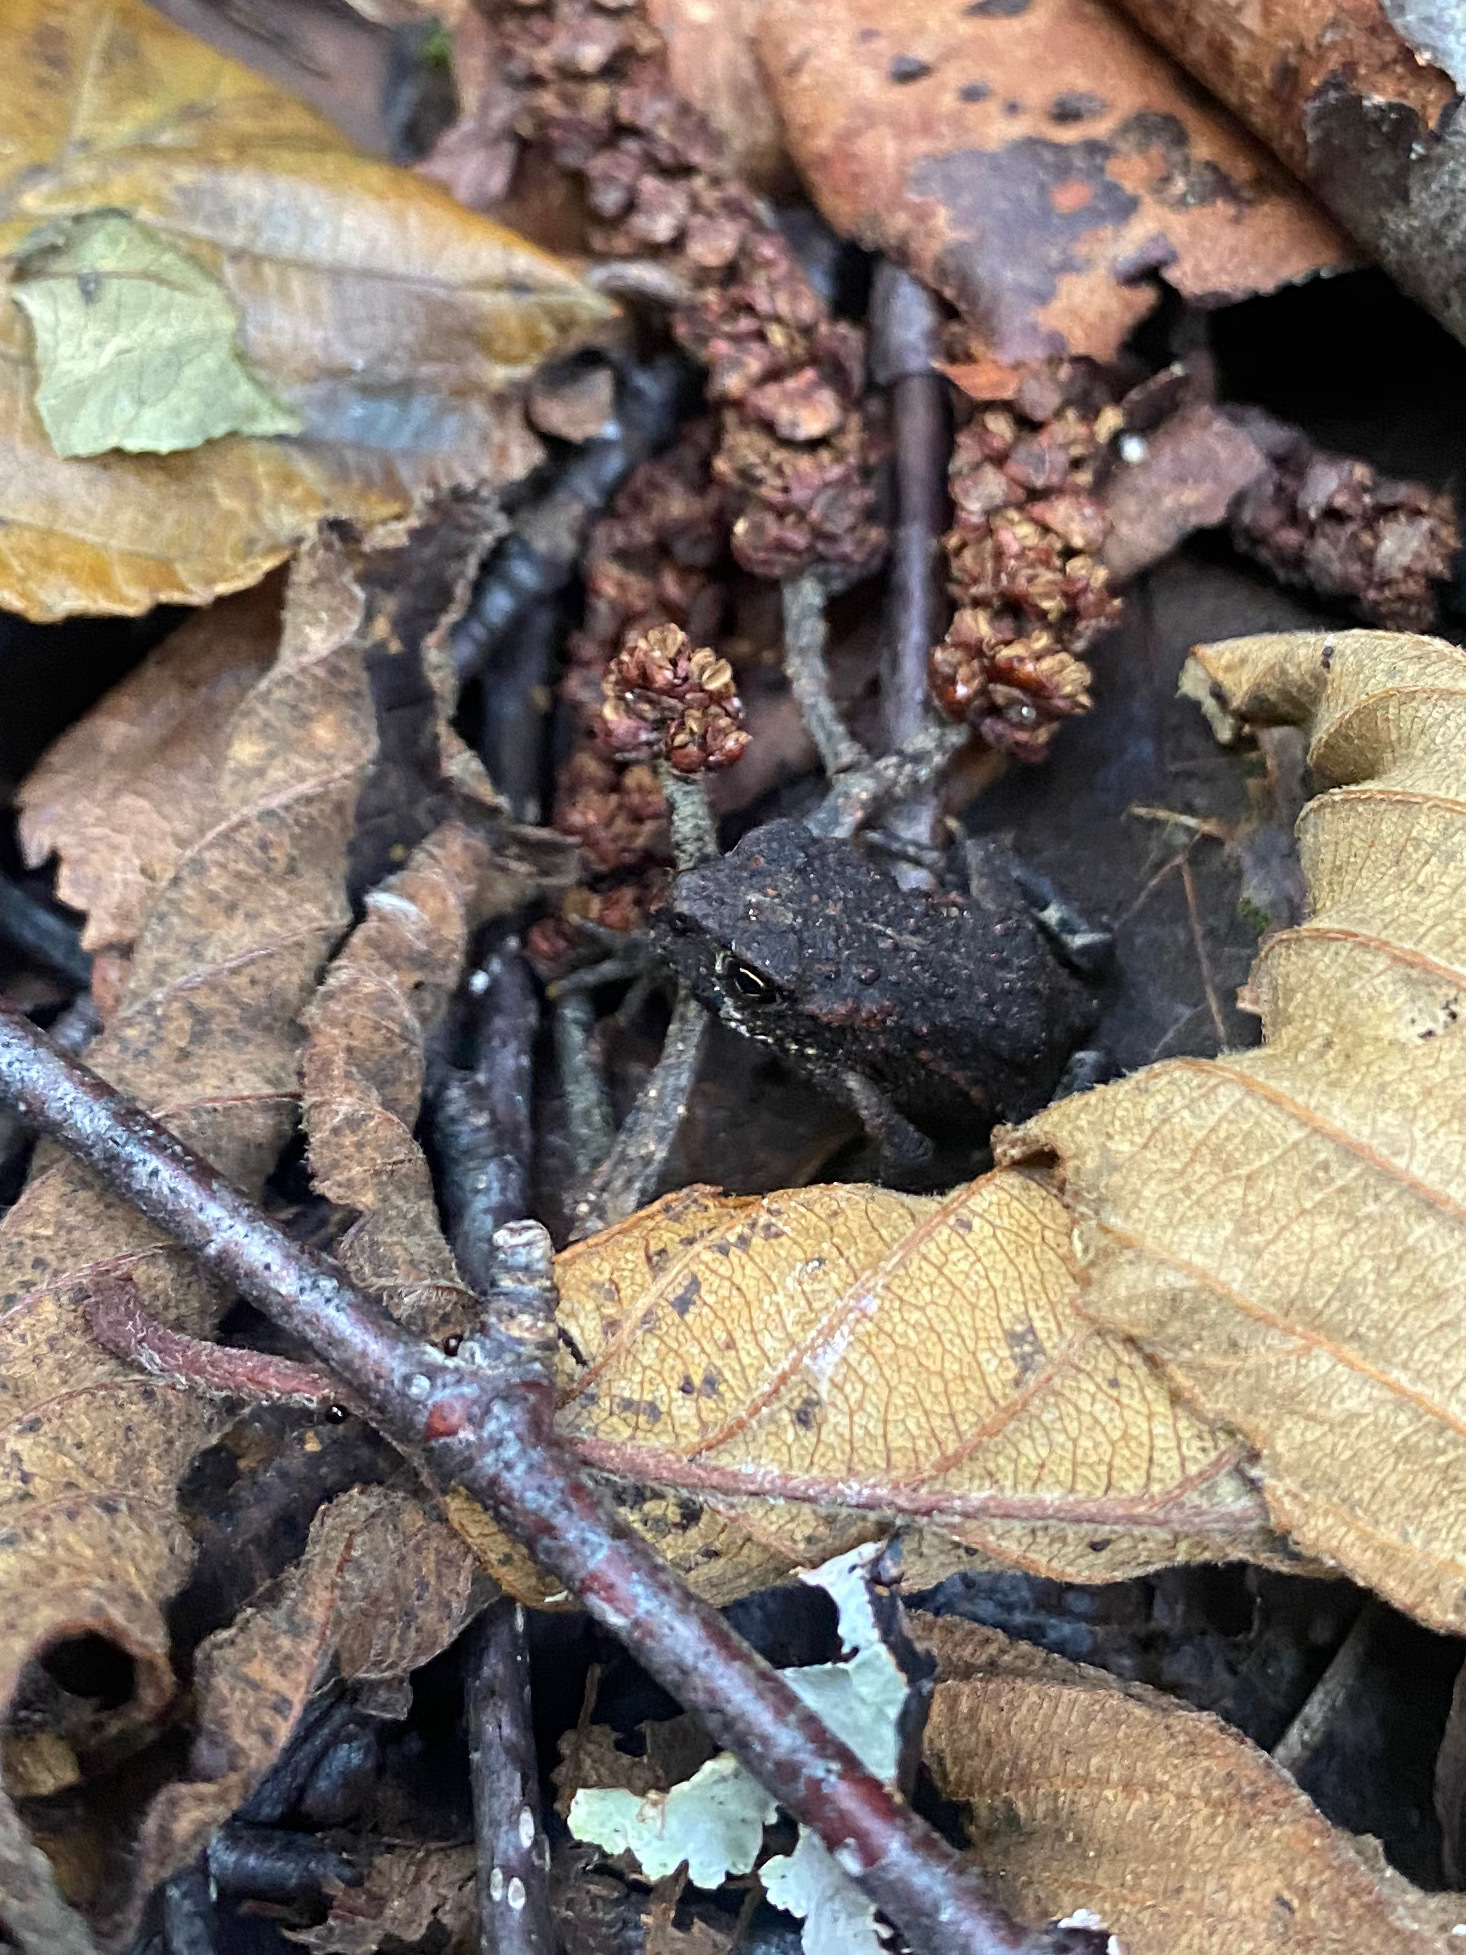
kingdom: Animalia
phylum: Chordata
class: Amphibia
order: Anura
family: Bufonidae
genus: Anaxyrus
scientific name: Anaxyrus boreas
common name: Western toad
